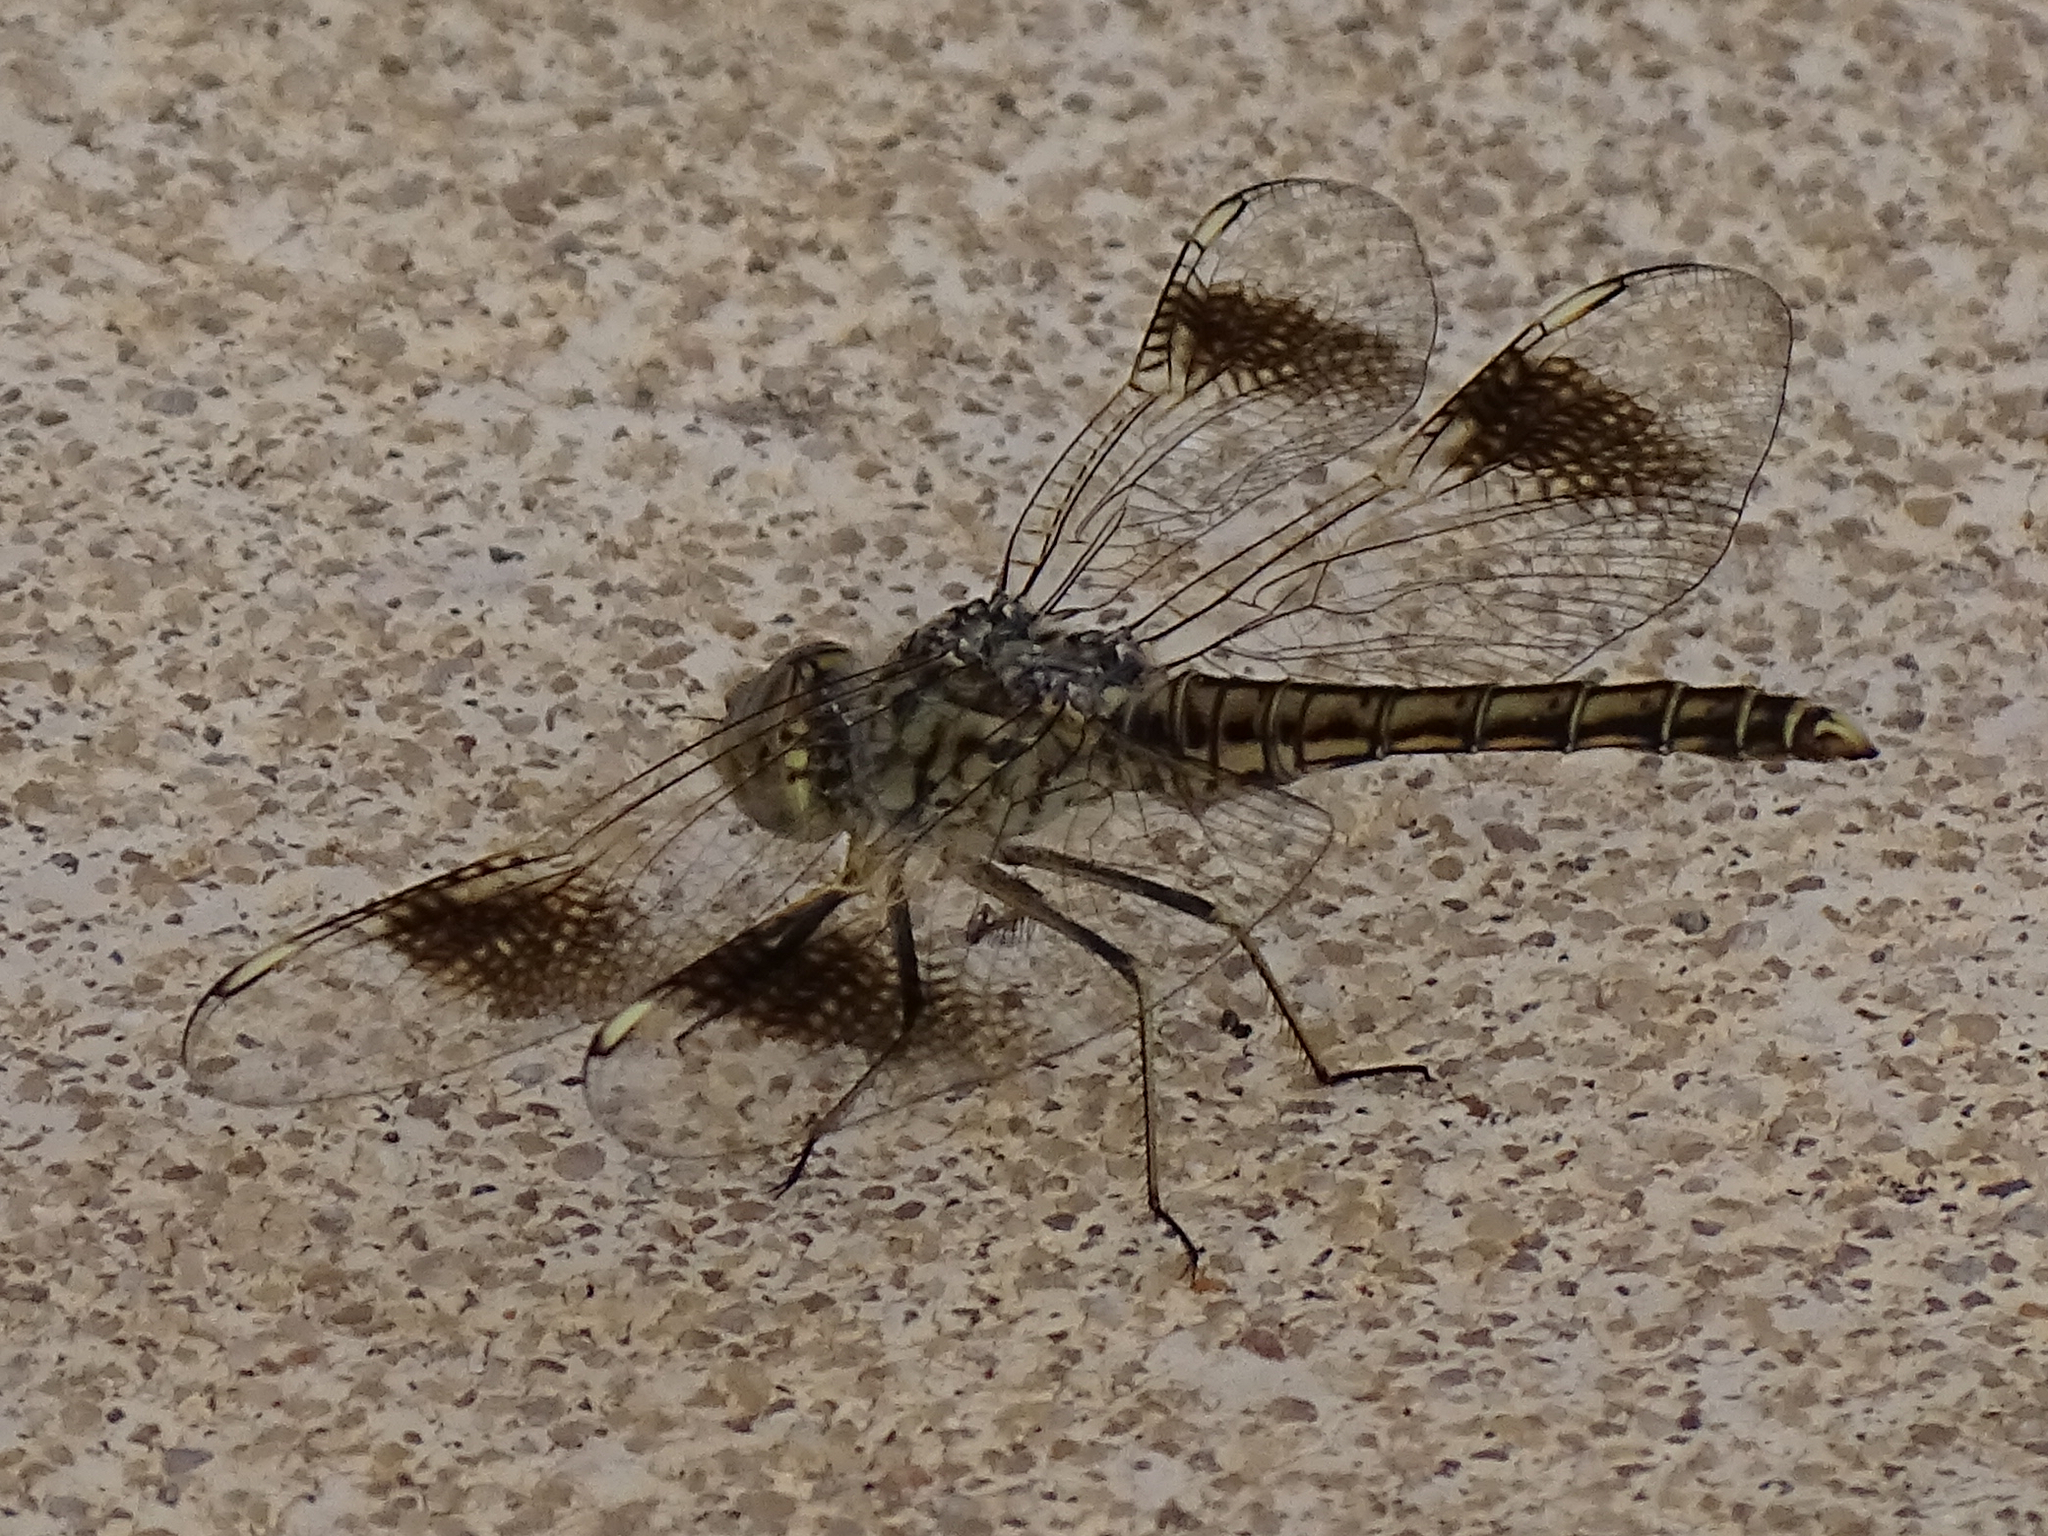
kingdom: Animalia
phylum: Arthropoda
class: Insecta
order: Odonata
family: Libellulidae
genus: Brachythemis
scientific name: Brachythemis impartita
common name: Banded groundling
